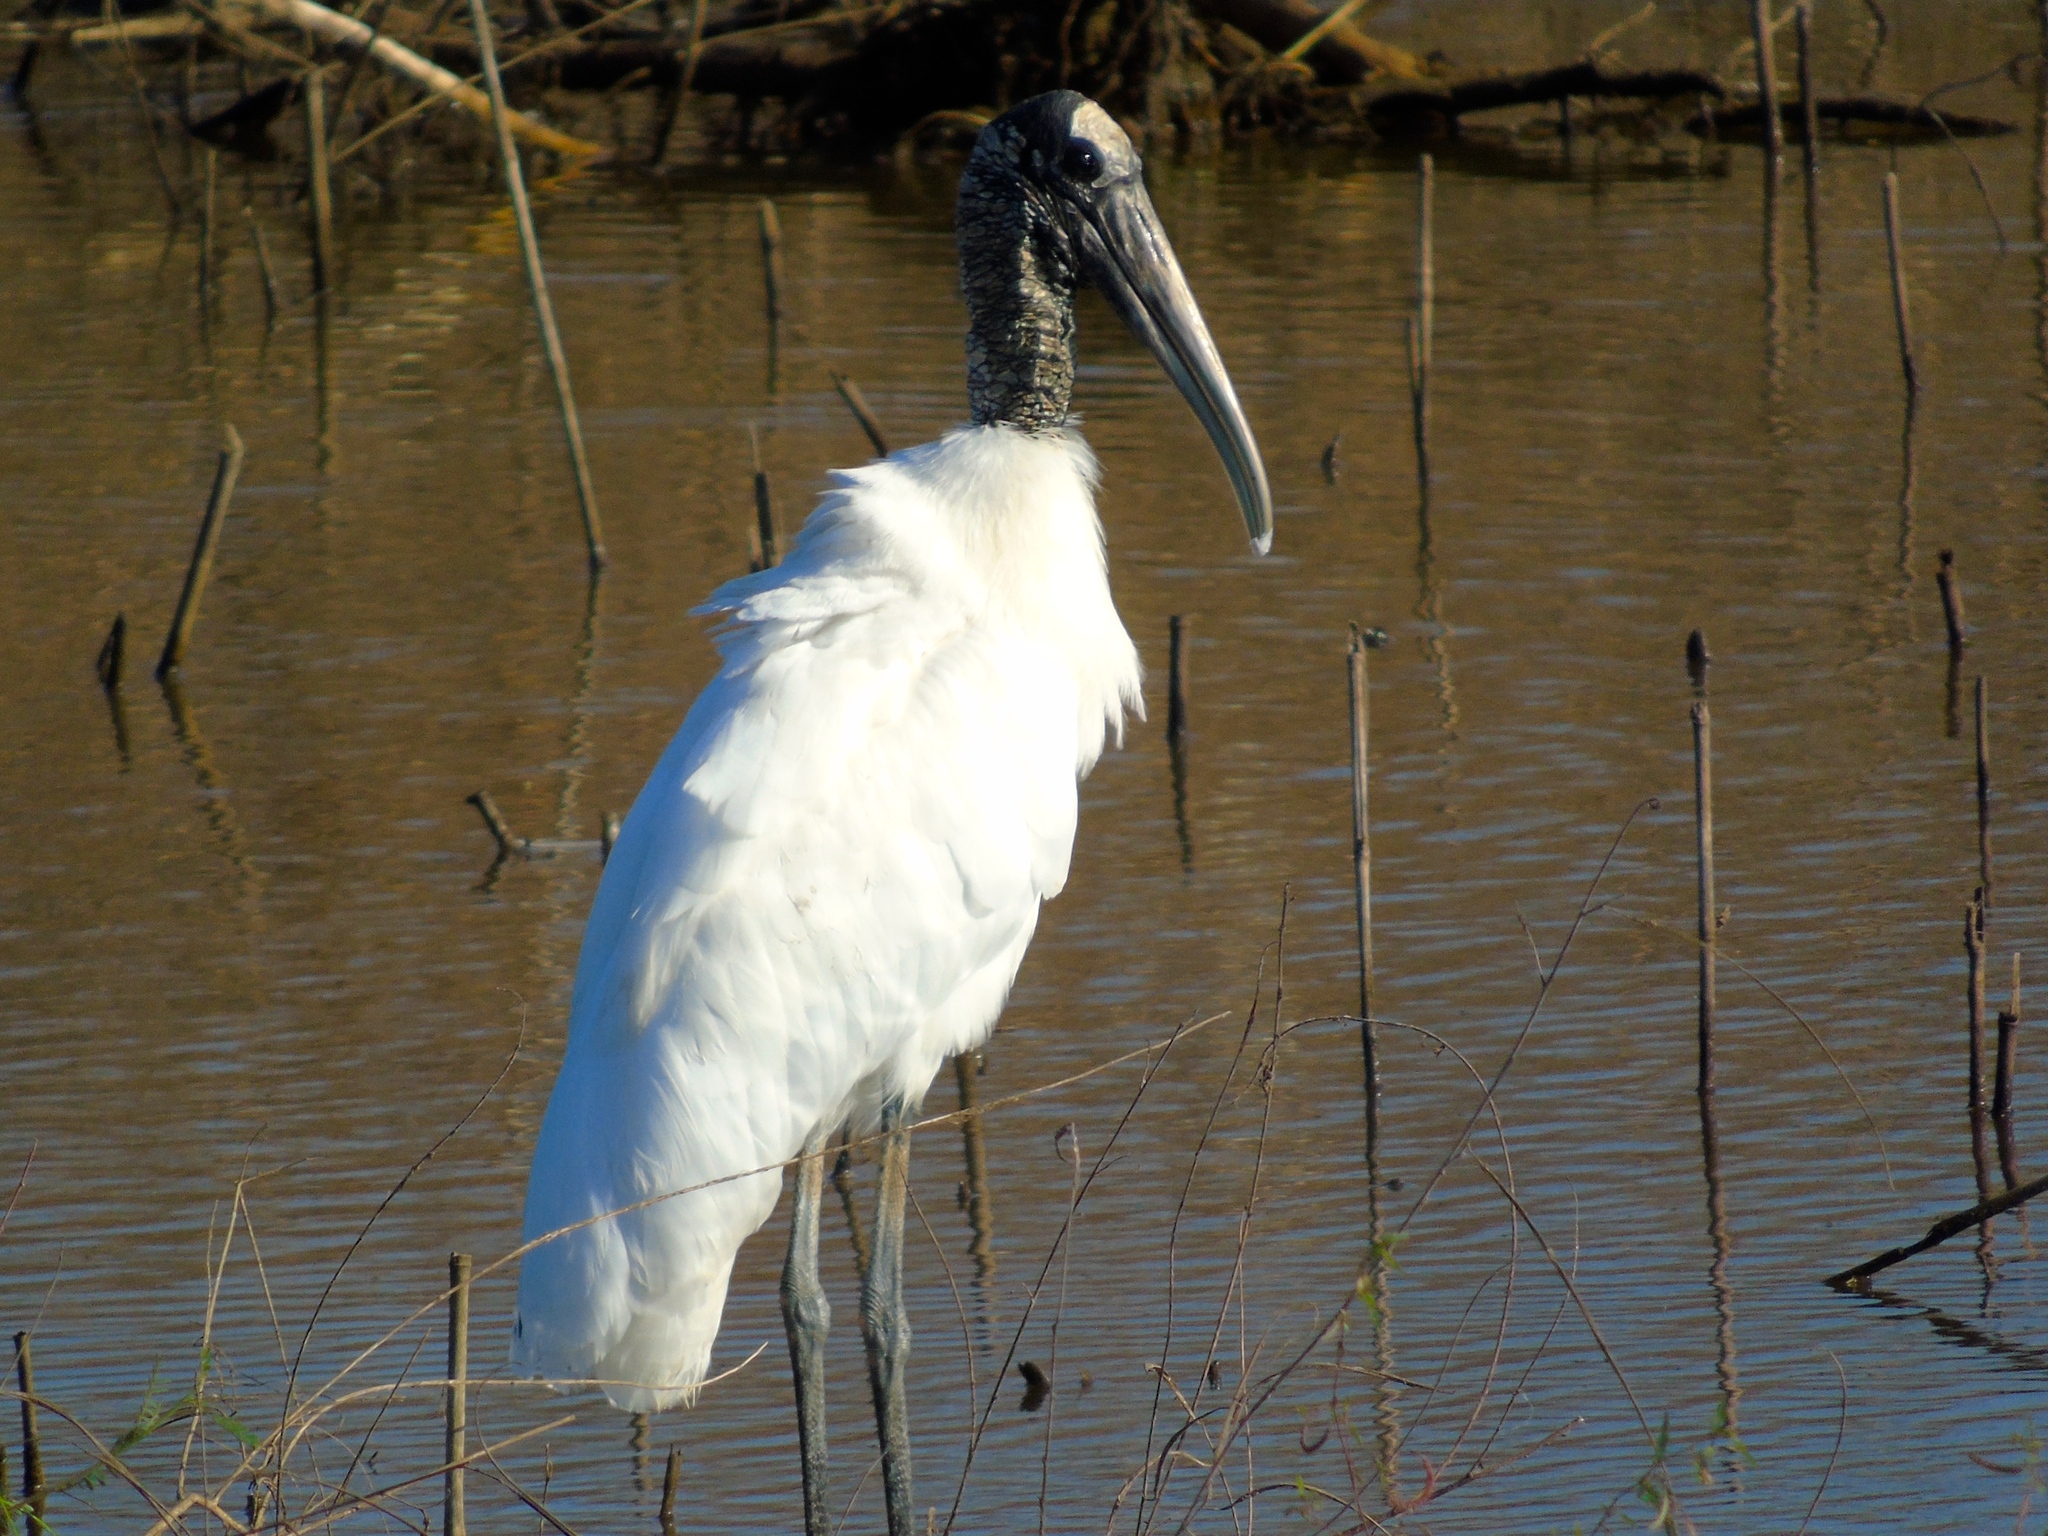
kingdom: Animalia
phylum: Chordata
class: Aves
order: Ciconiiformes
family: Ciconiidae
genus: Mycteria
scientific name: Mycteria americana
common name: Wood stork
